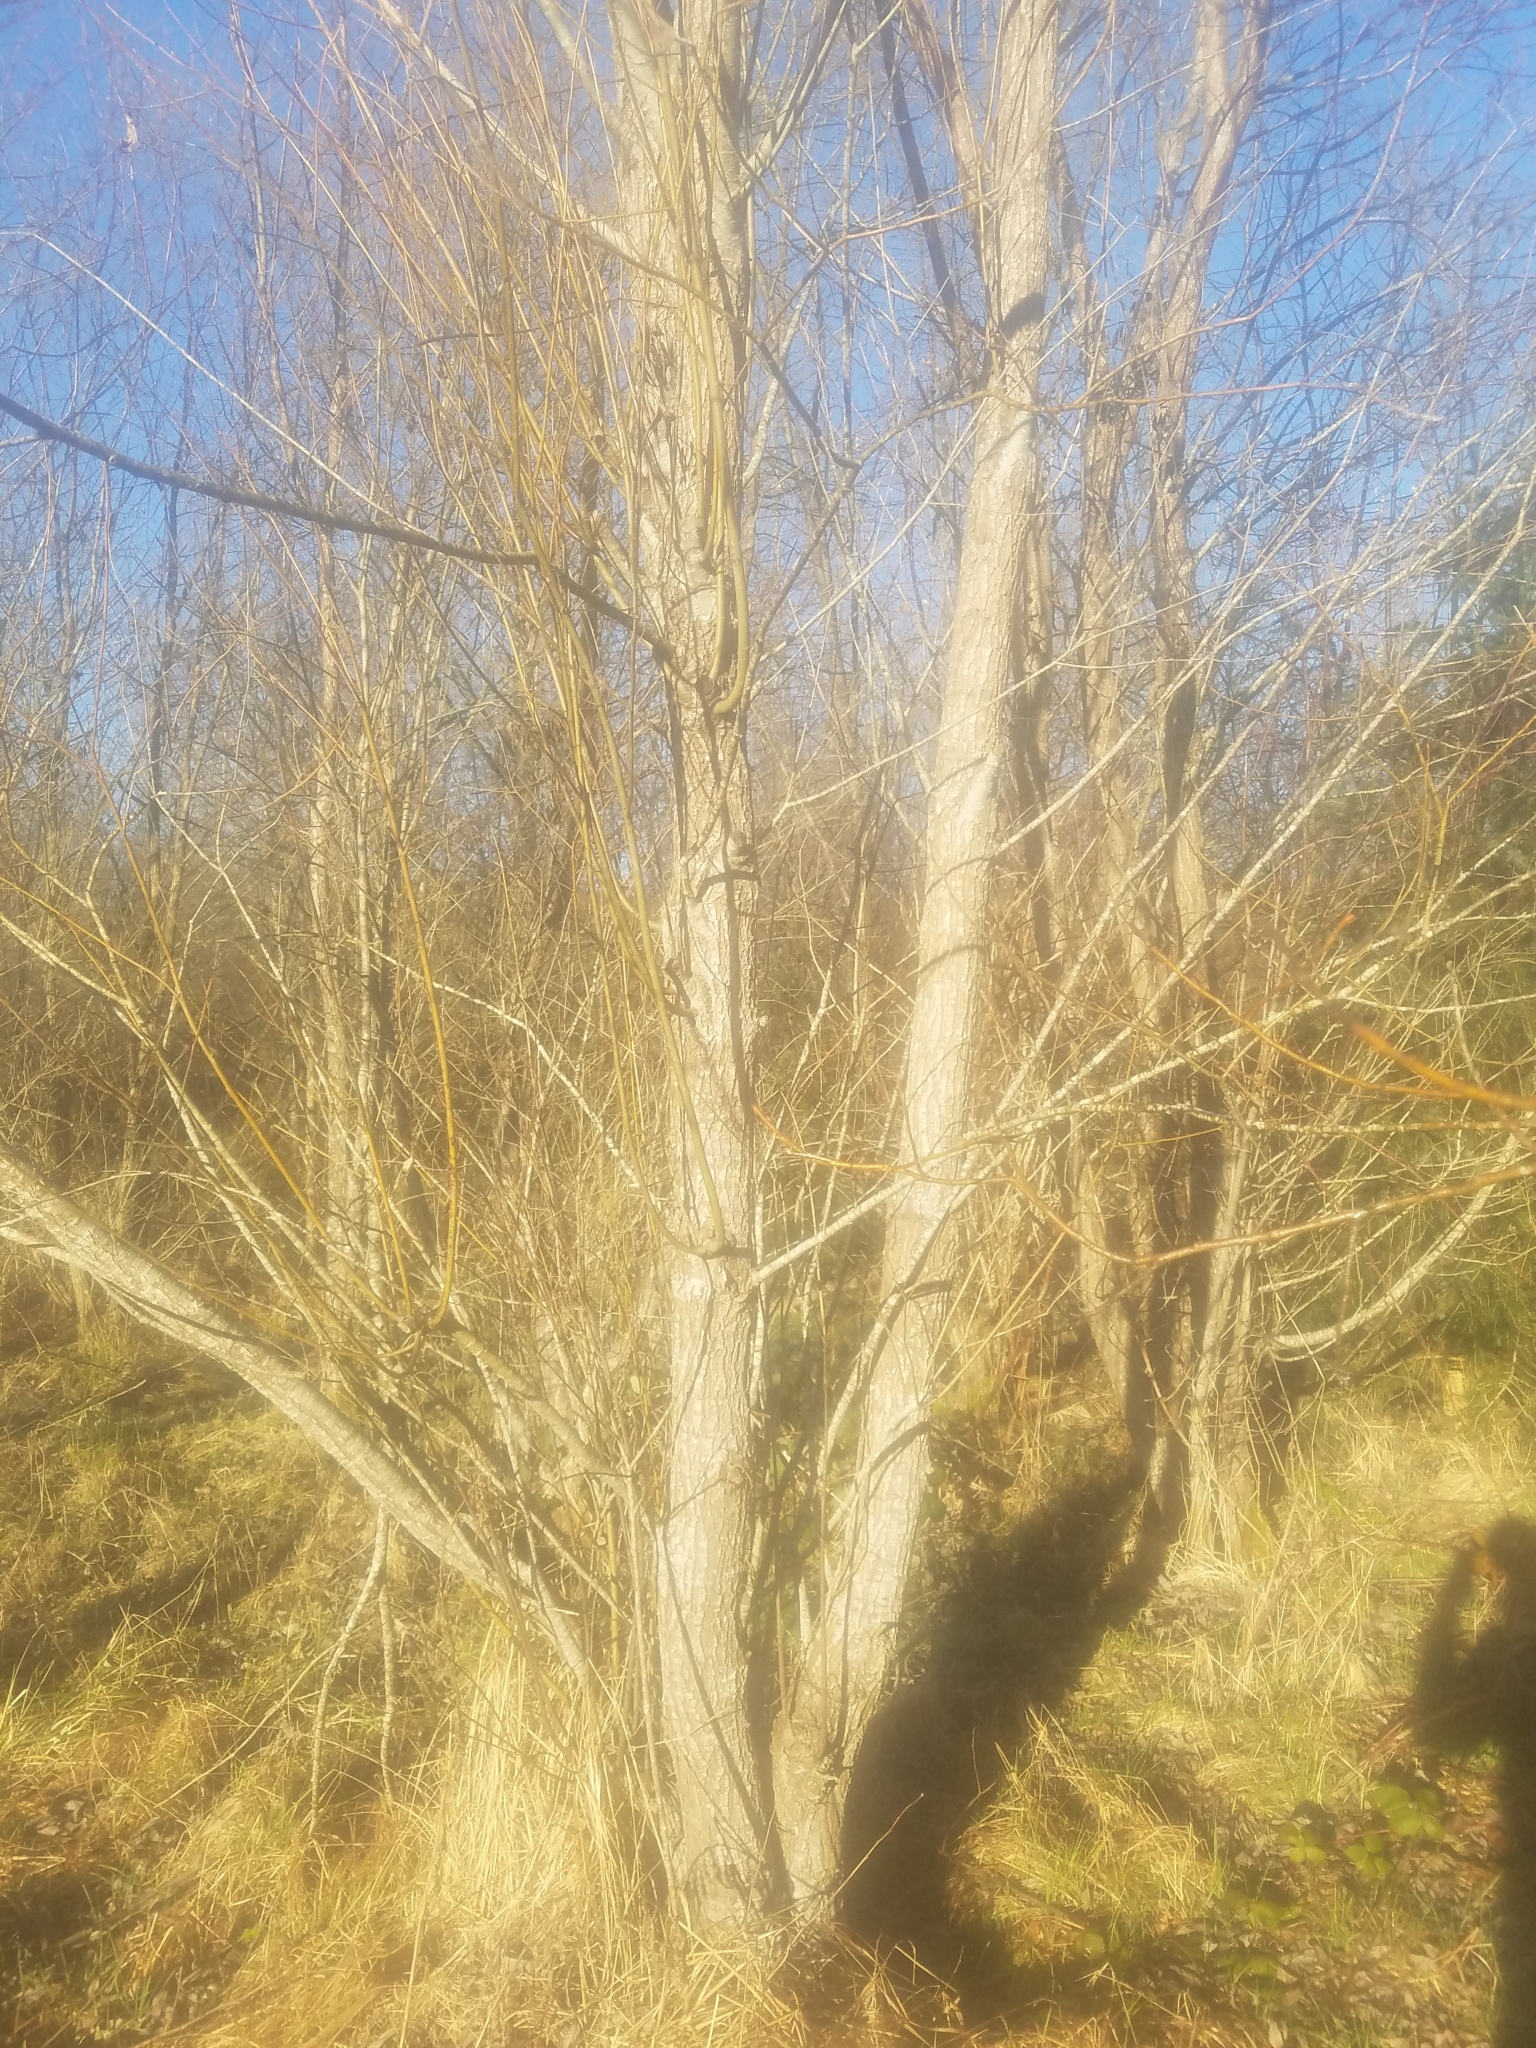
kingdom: Plantae
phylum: Tracheophyta
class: Magnoliopsida
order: Malpighiales
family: Salicaceae
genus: Populus
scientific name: Populus trichocarpa
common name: Black cottonwood
